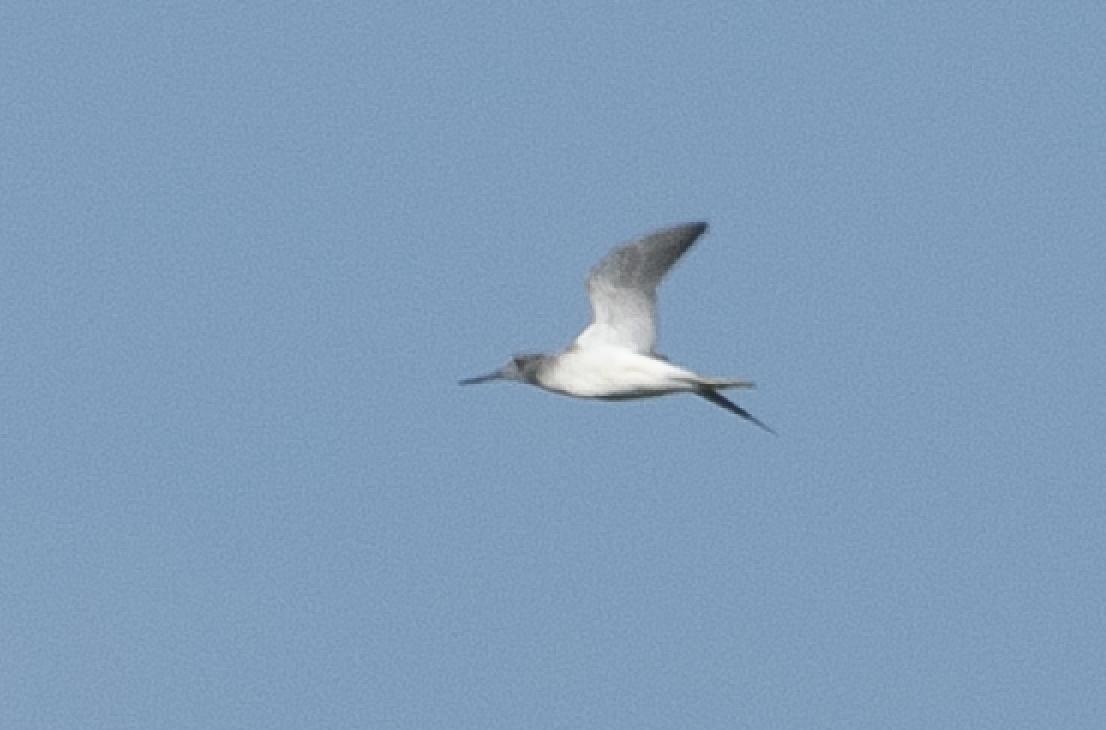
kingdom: Animalia
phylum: Chordata
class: Aves
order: Charadriiformes
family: Scolopacidae
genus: Tringa
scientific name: Tringa nebularia
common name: Common greenshank
